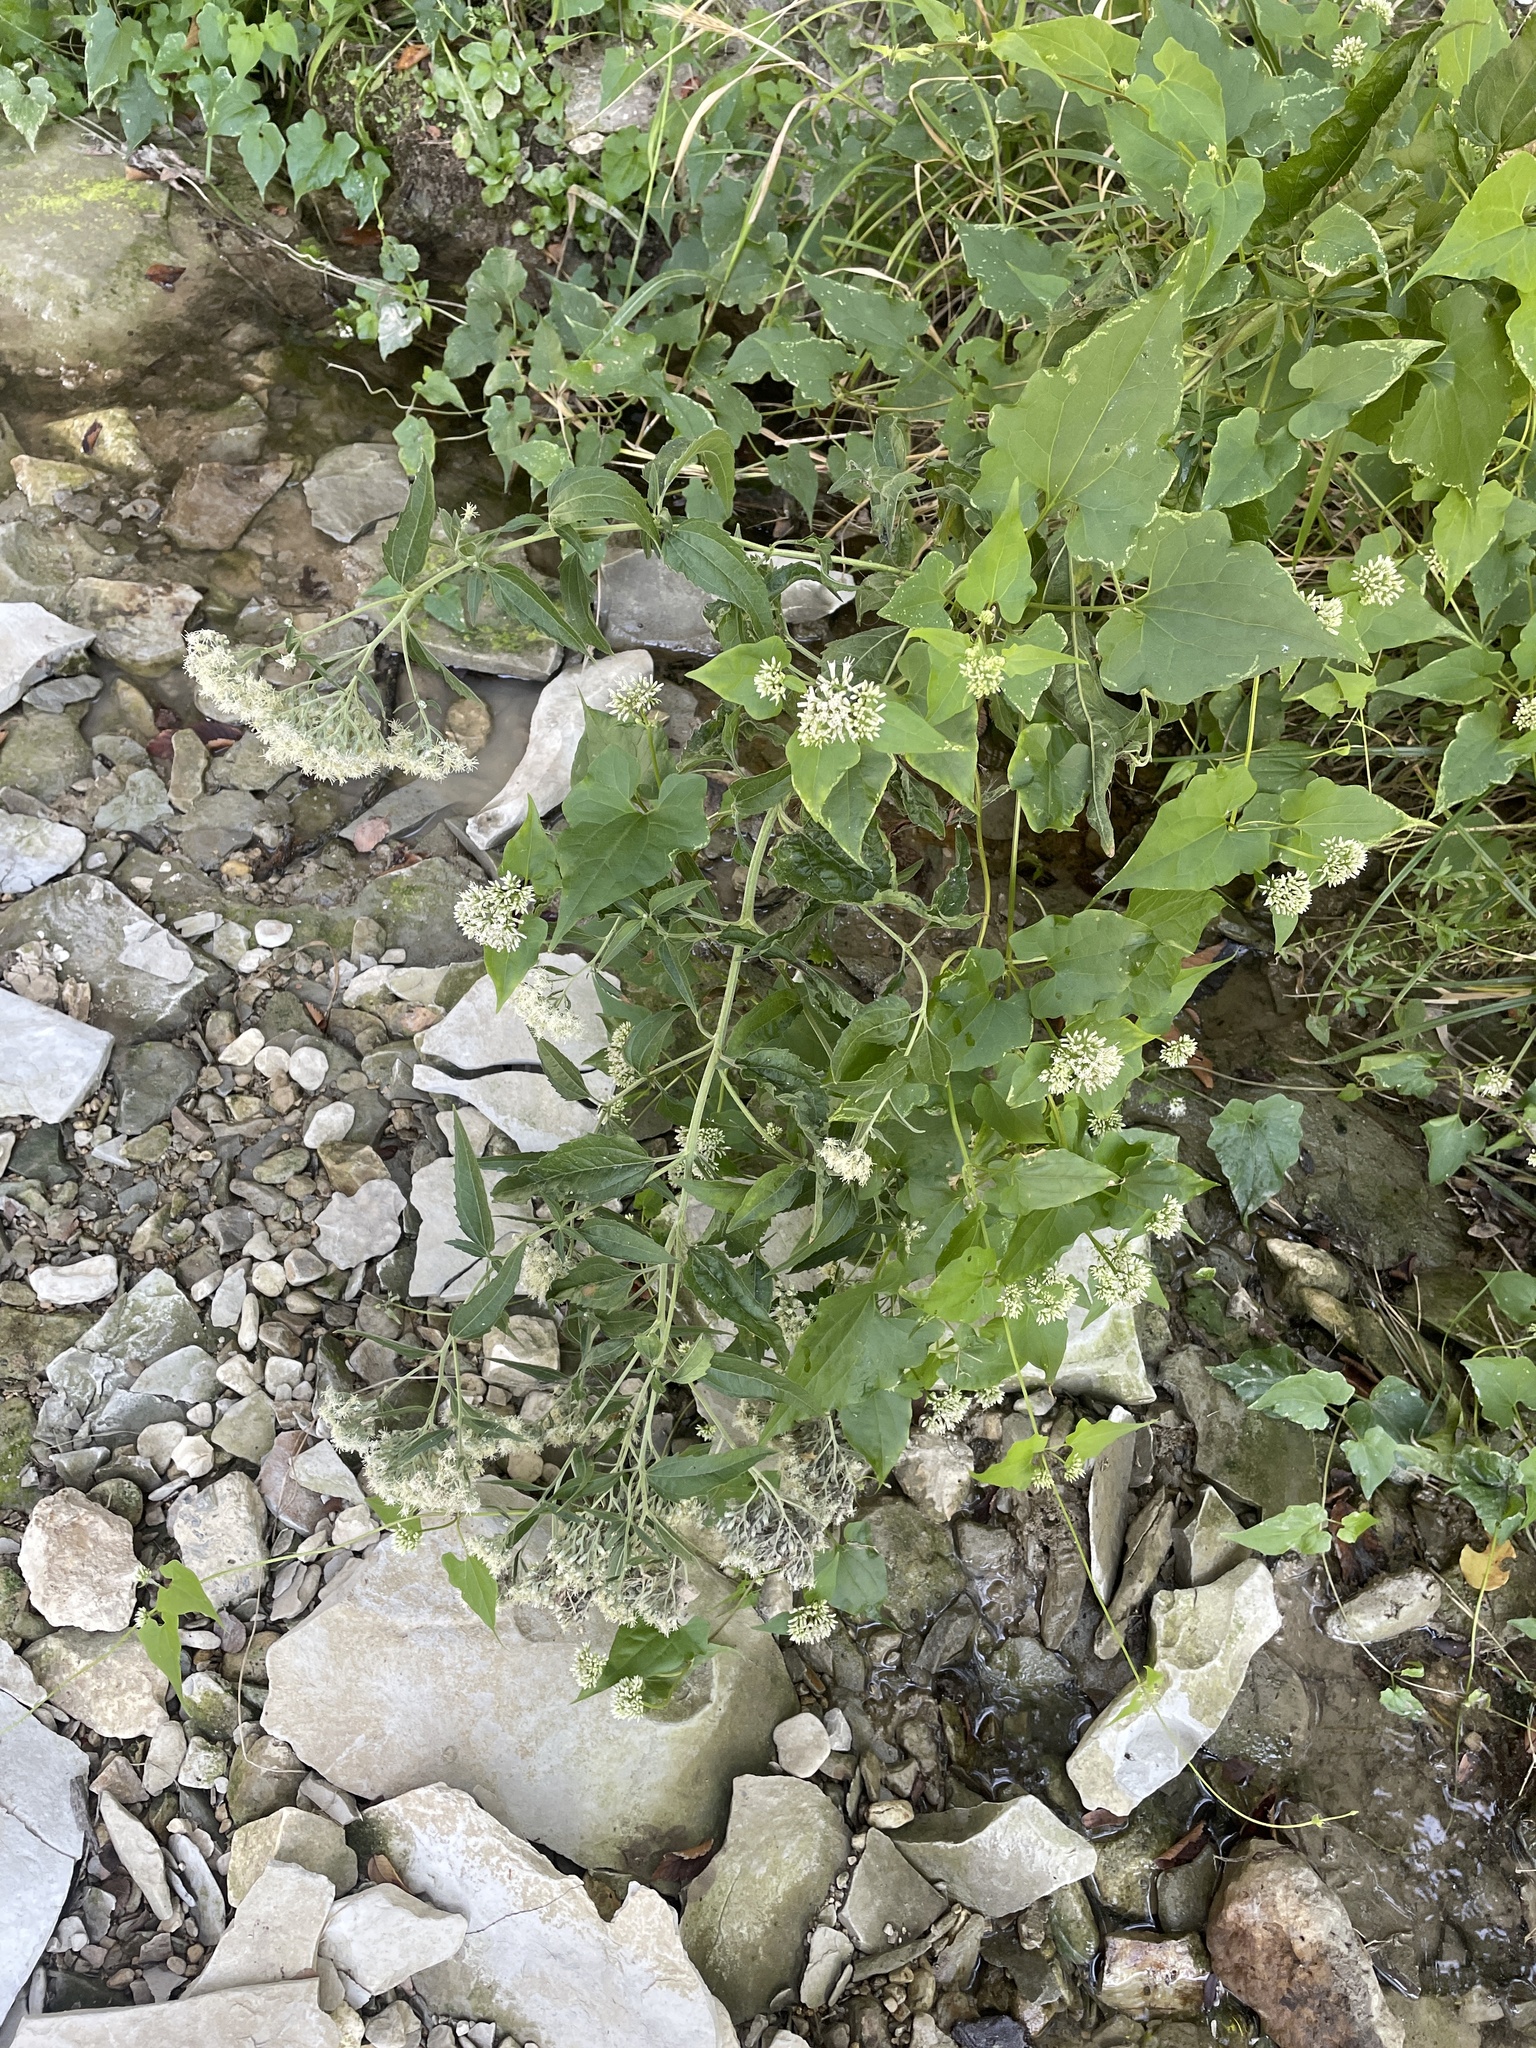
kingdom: Plantae
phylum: Tracheophyta
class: Magnoliopsida
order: Asterales
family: Asteraceae
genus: Eupatorium
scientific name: Eupatorium serotinum
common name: Late boneset
